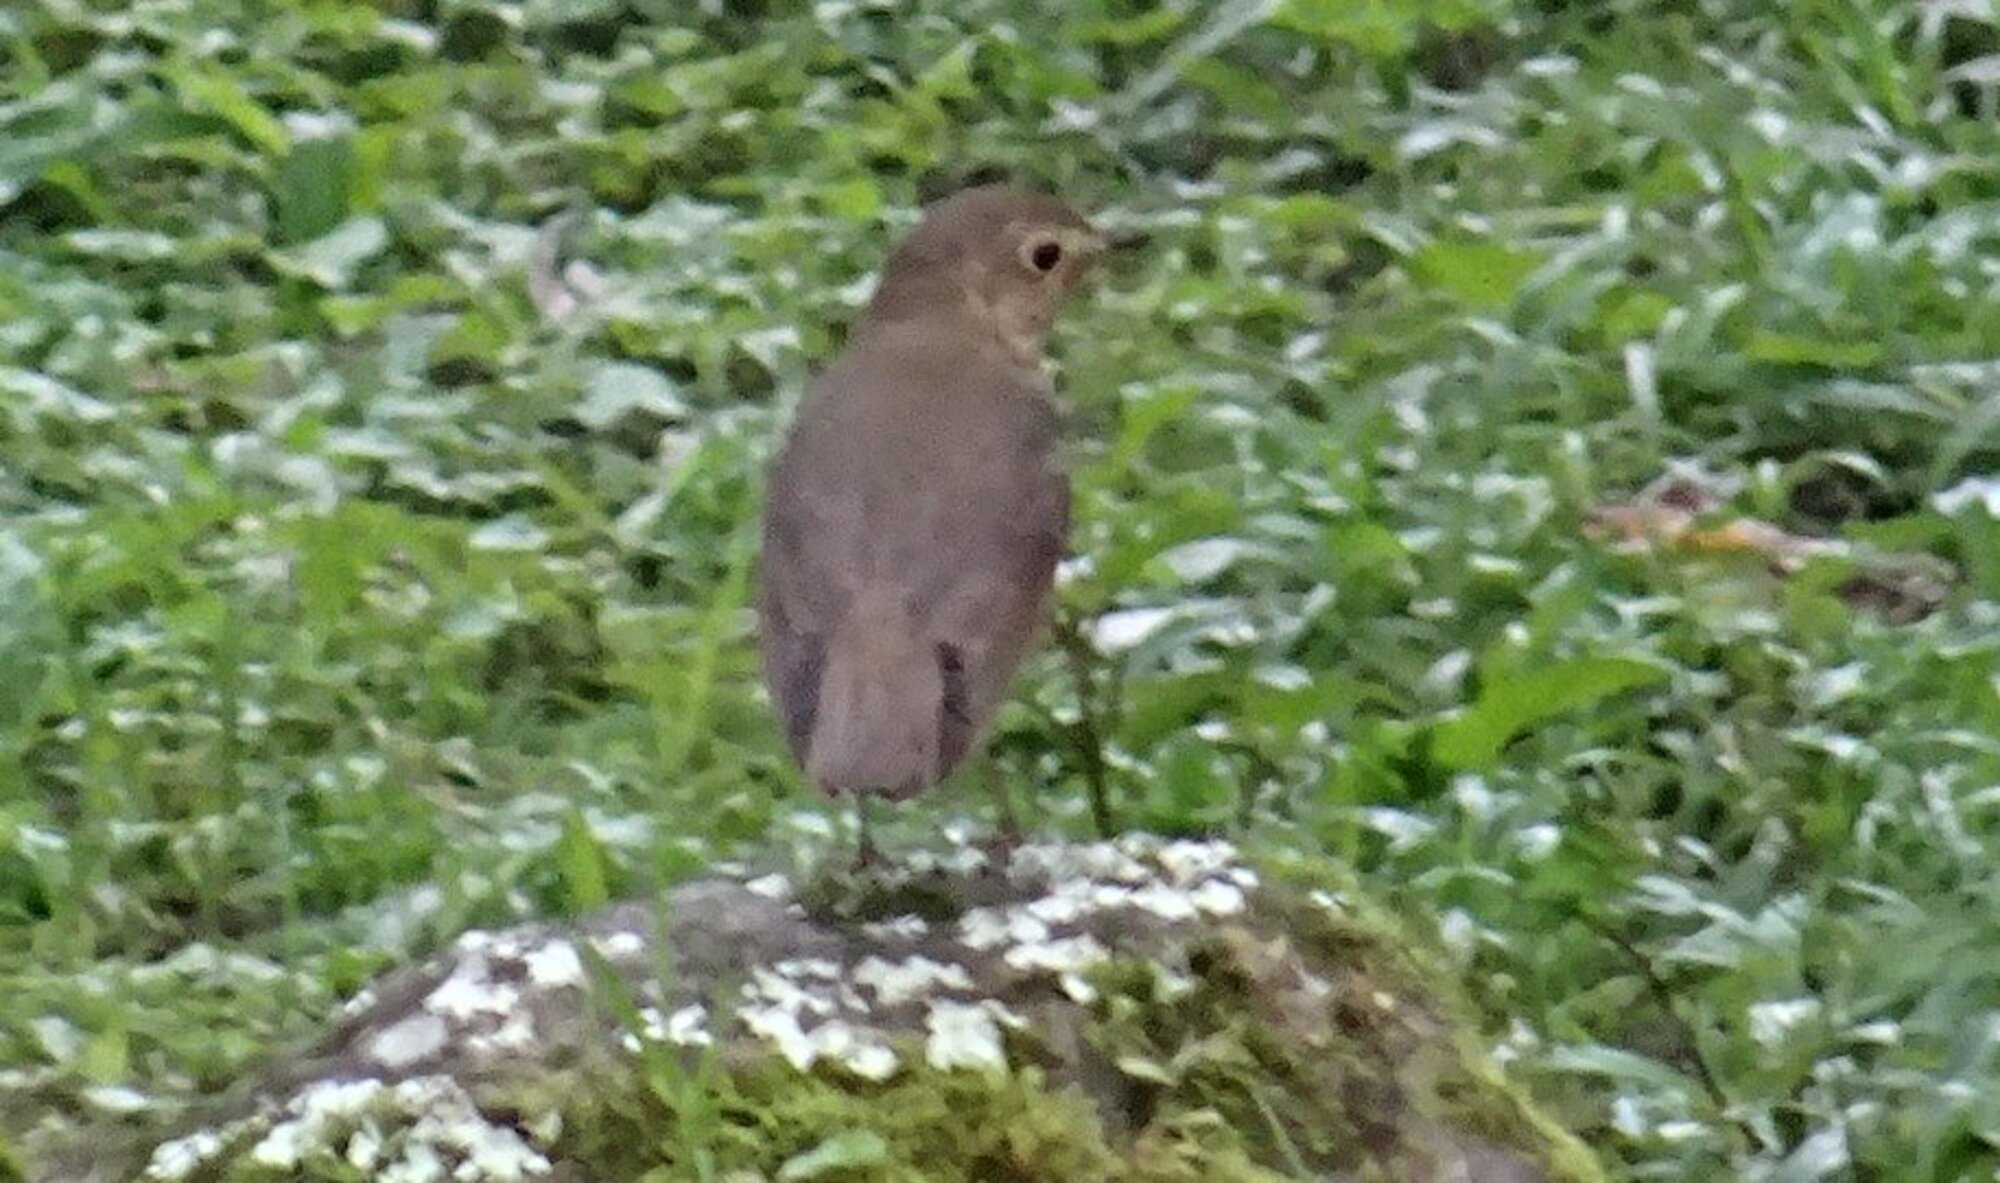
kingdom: Animalia
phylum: Chordata
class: Aves
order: Passeriformes
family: Turdidae
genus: Catharus
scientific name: Catharus ustulatus
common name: Swainson's thrush
